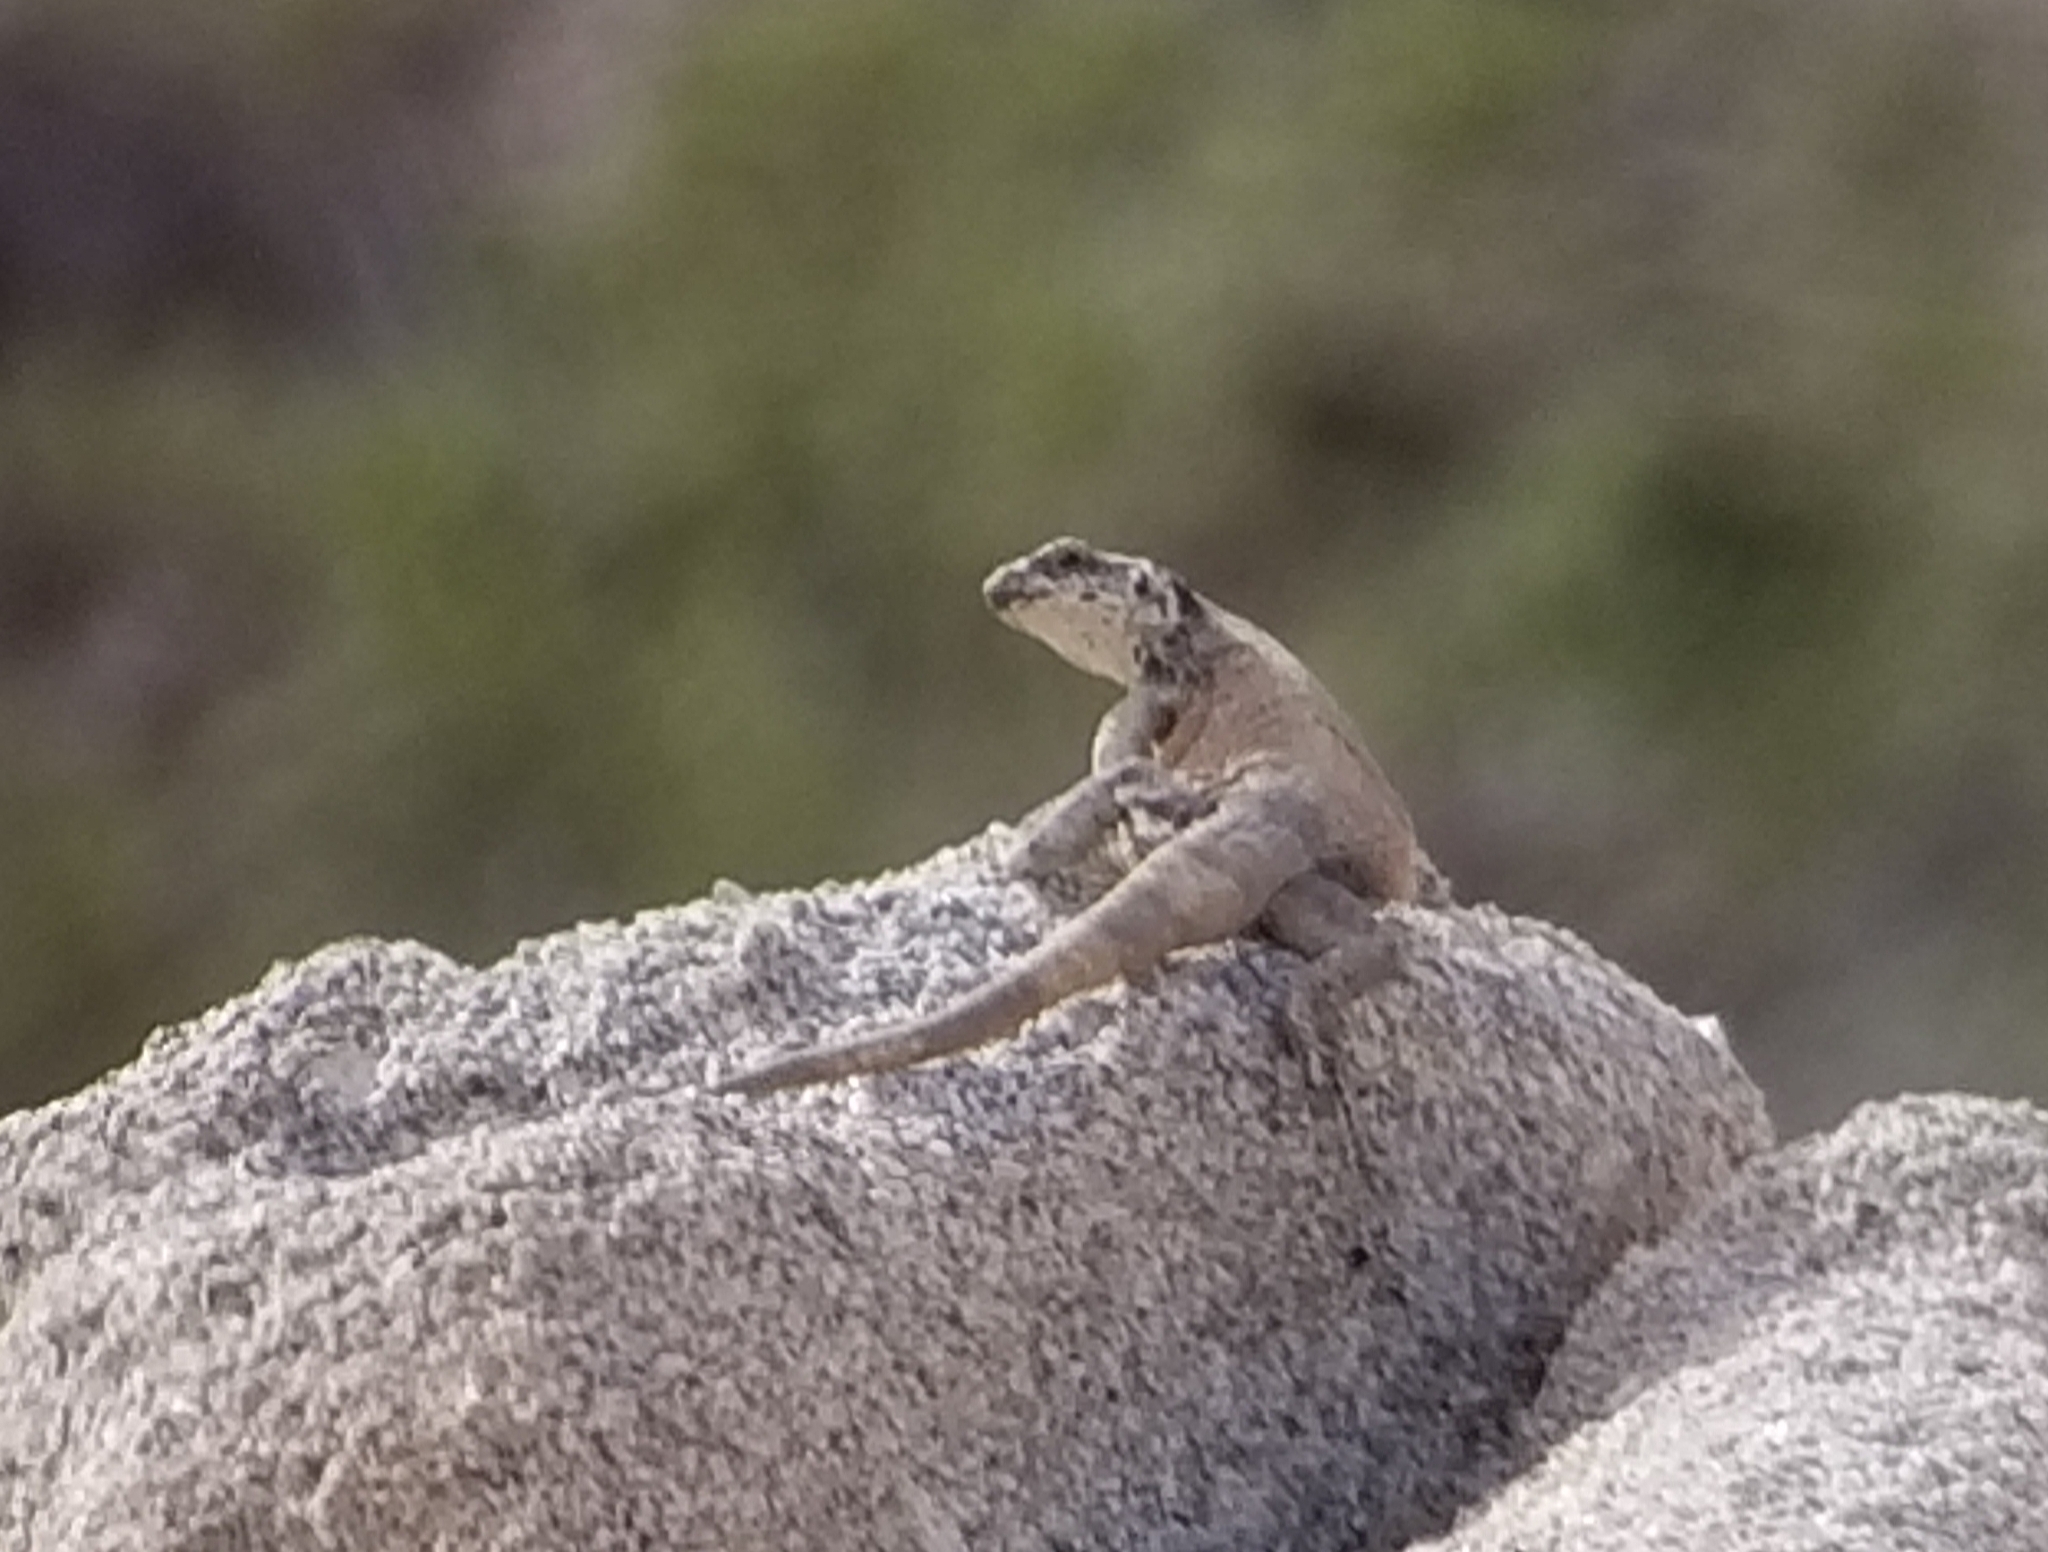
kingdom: Animalia
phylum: Chordata
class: Squamata
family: Iguanidae
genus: Sauromalus
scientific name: Sauromalus ater
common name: Northern chuckwalla
